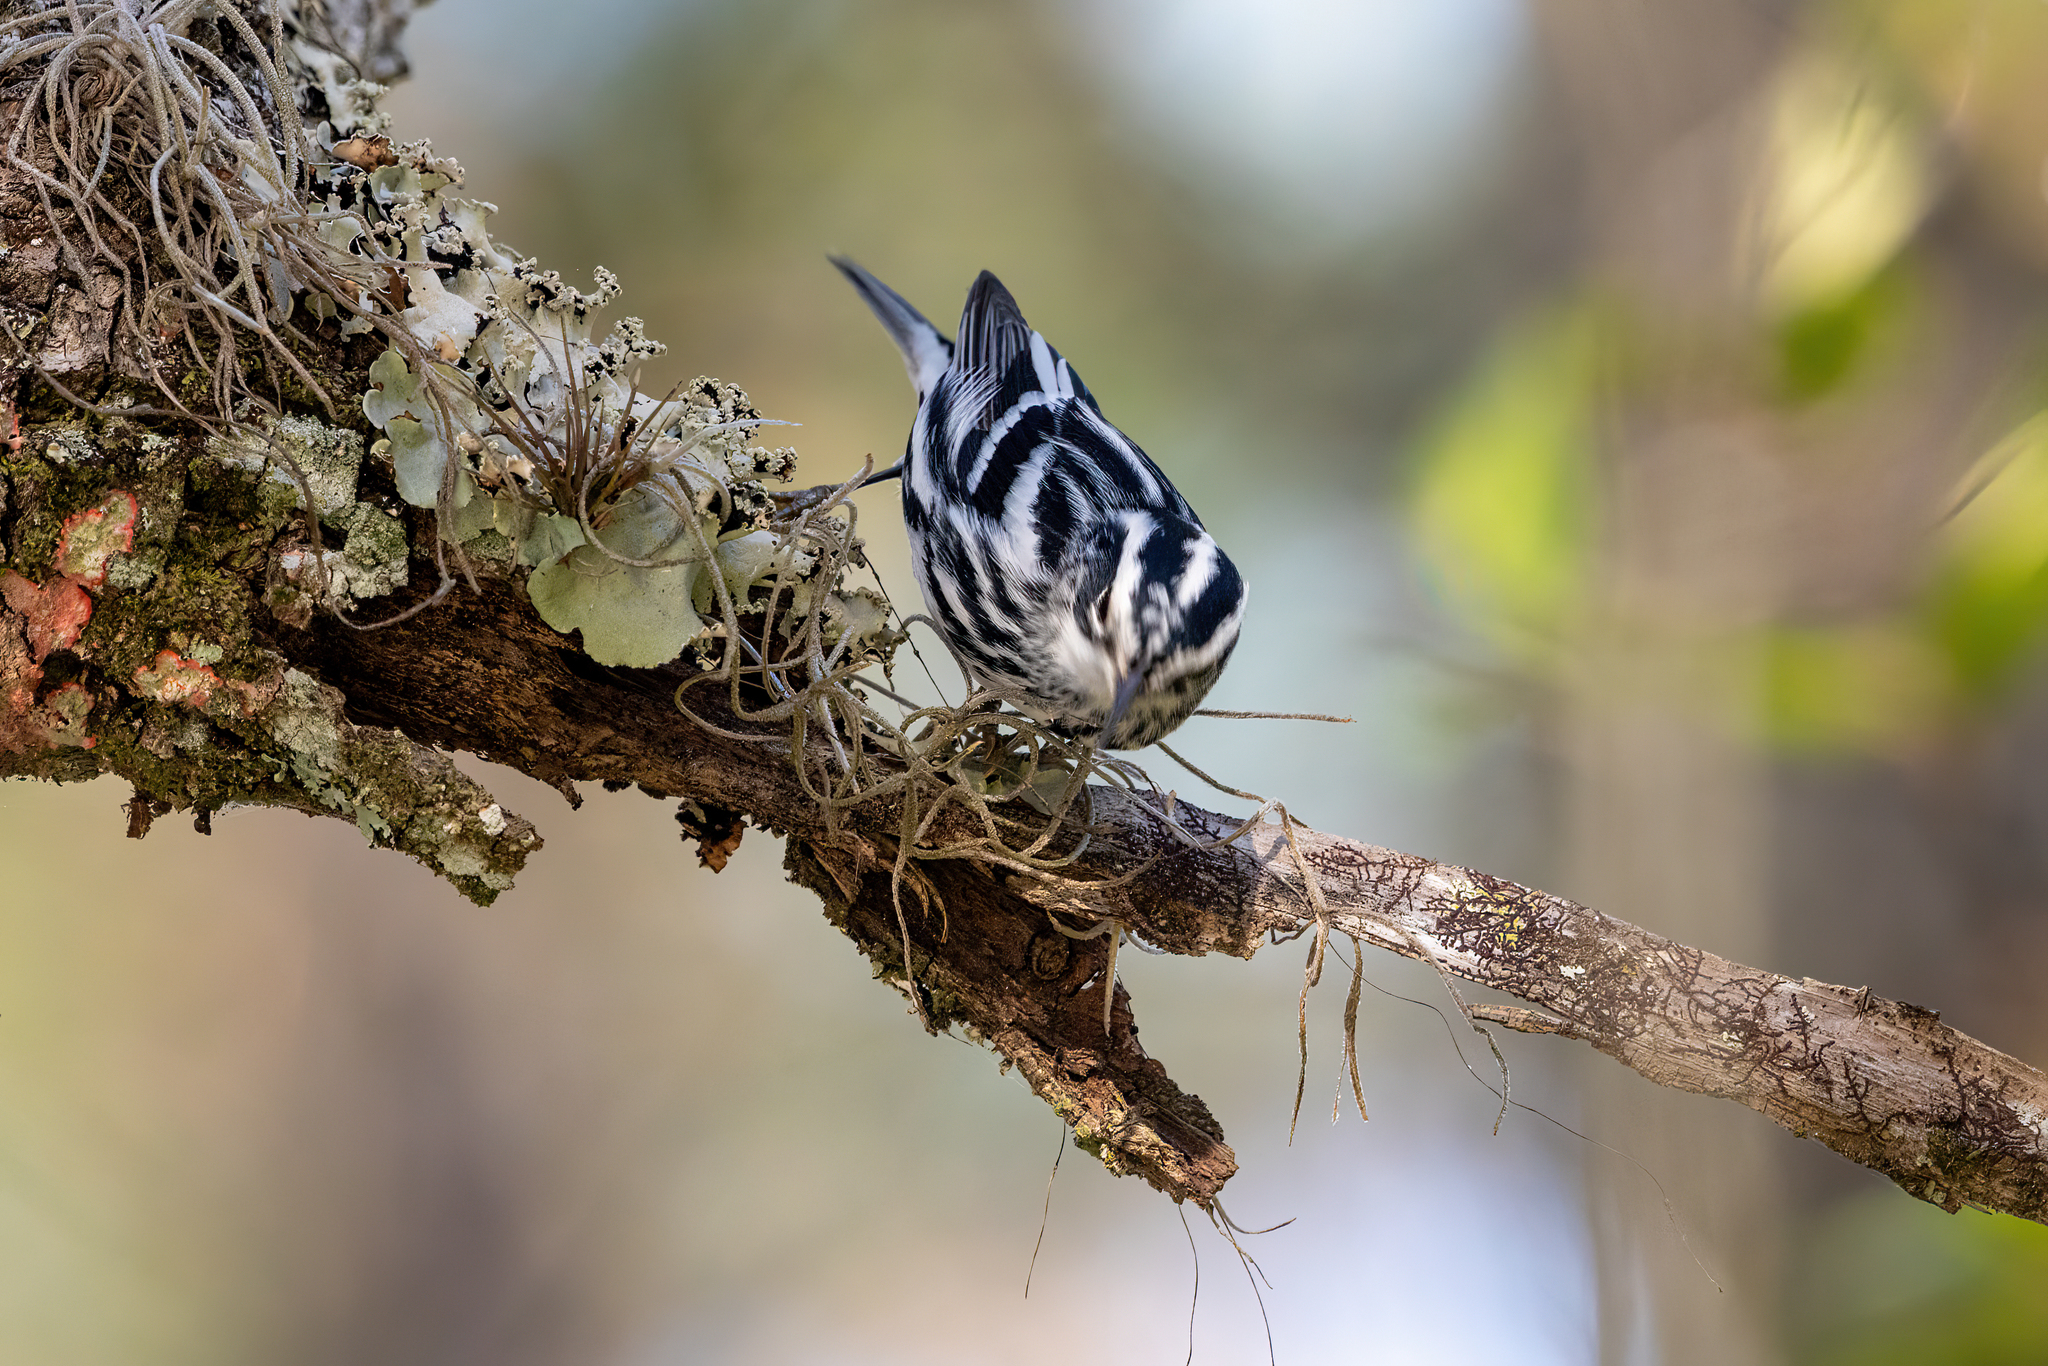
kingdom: Animalia
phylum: Chordata
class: Aves
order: Passeriformes
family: Parulidae
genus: Mniotilta
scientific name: Mniotilta varia
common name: Black-and-white warbler
